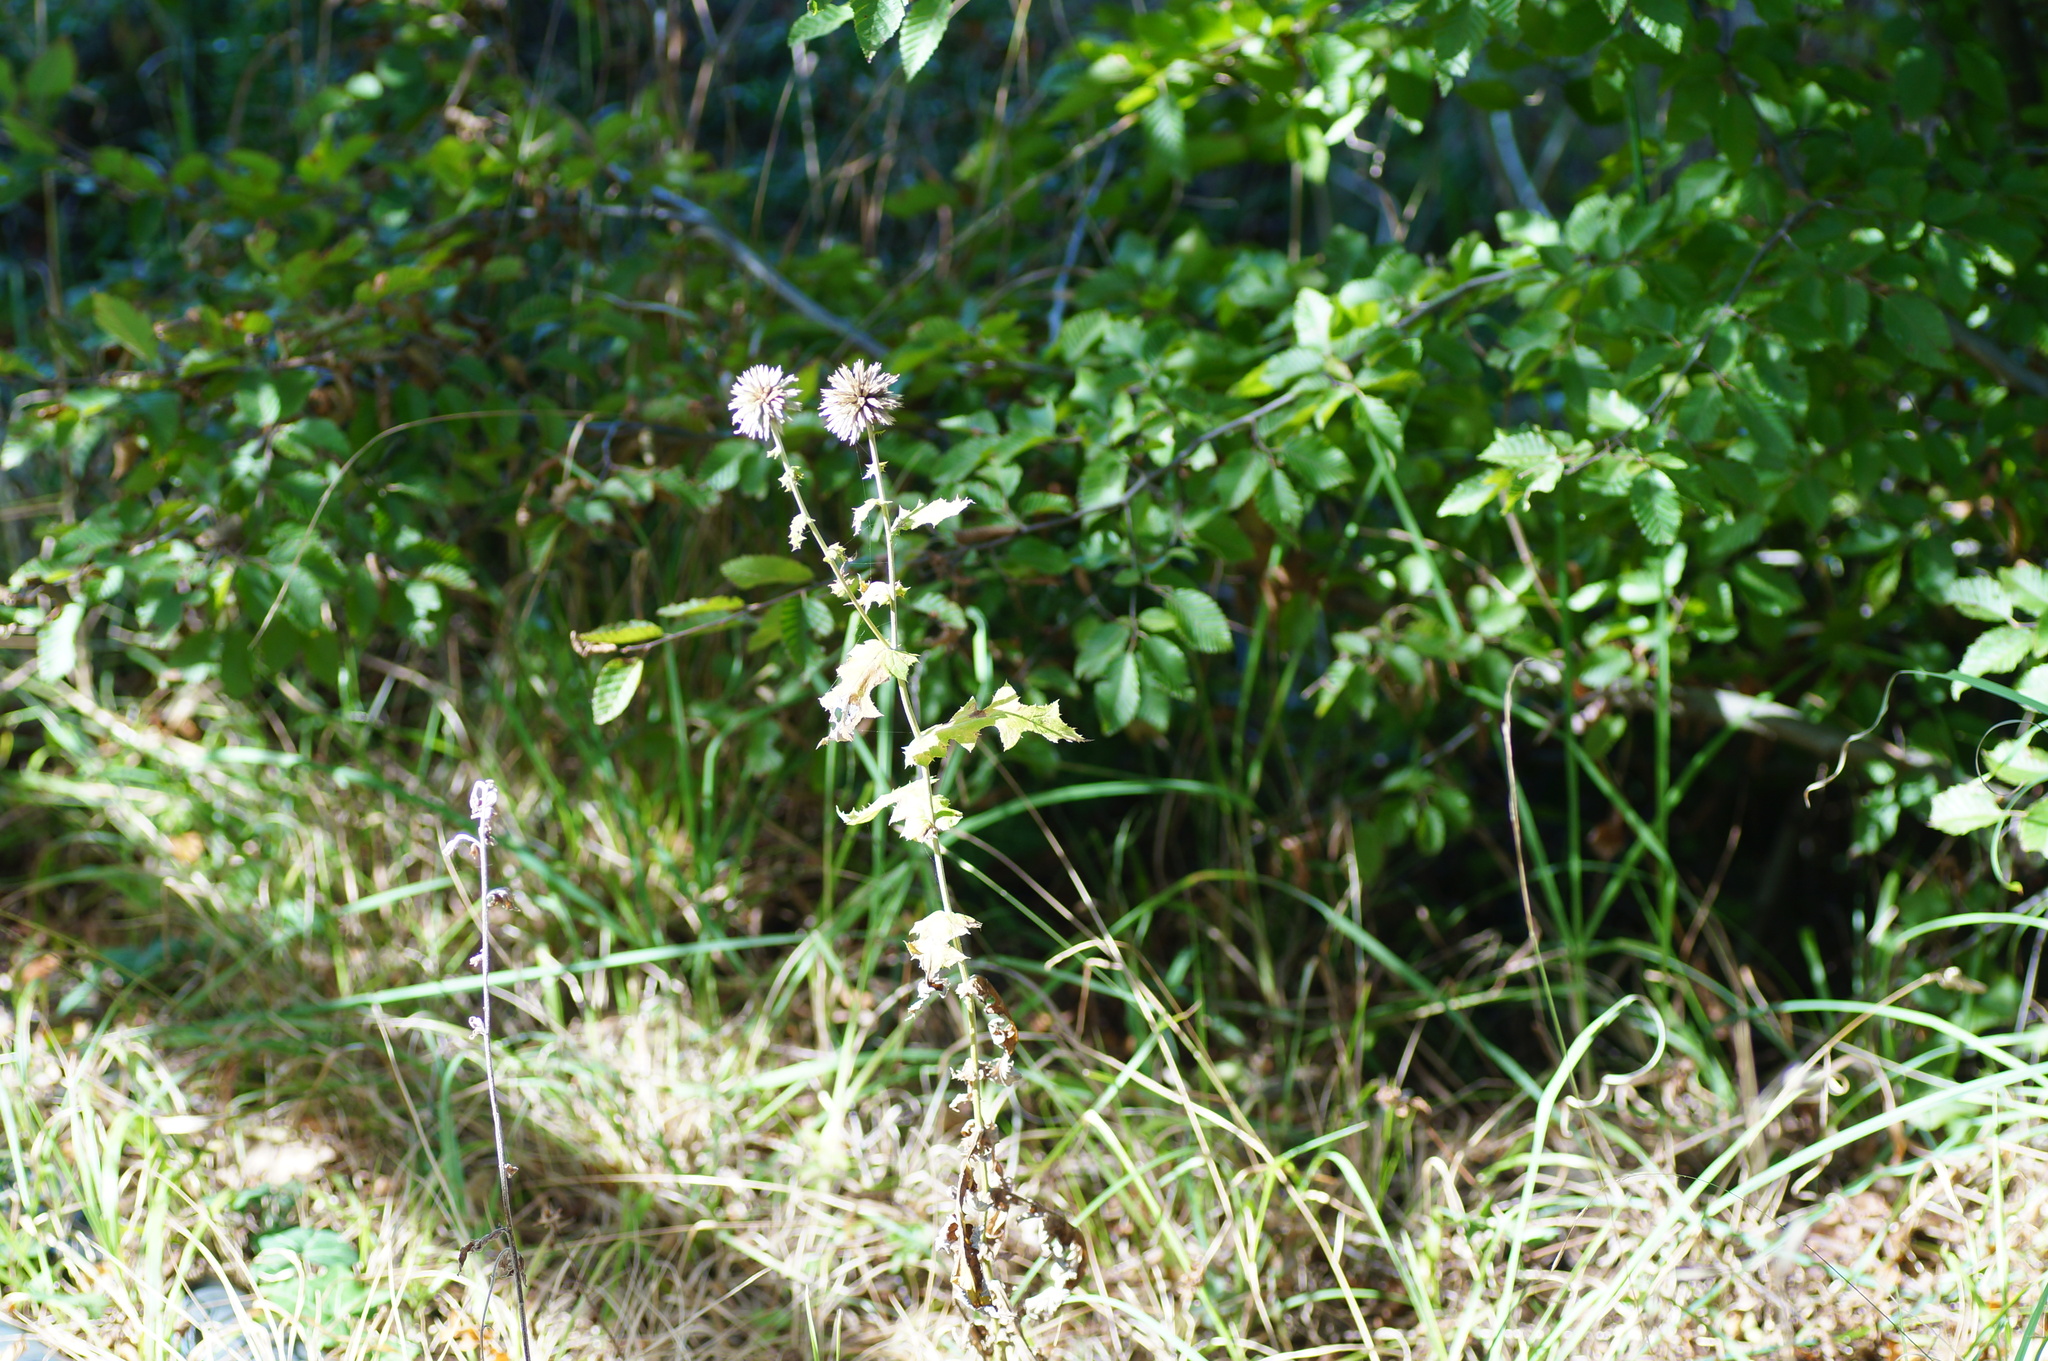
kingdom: Plantae
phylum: Tracheophyta
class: Magnoliopsida
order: Asterales
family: Asteraceae
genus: Echinops
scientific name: Echinops sphaerocephalus
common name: Glandular globe-thistle
